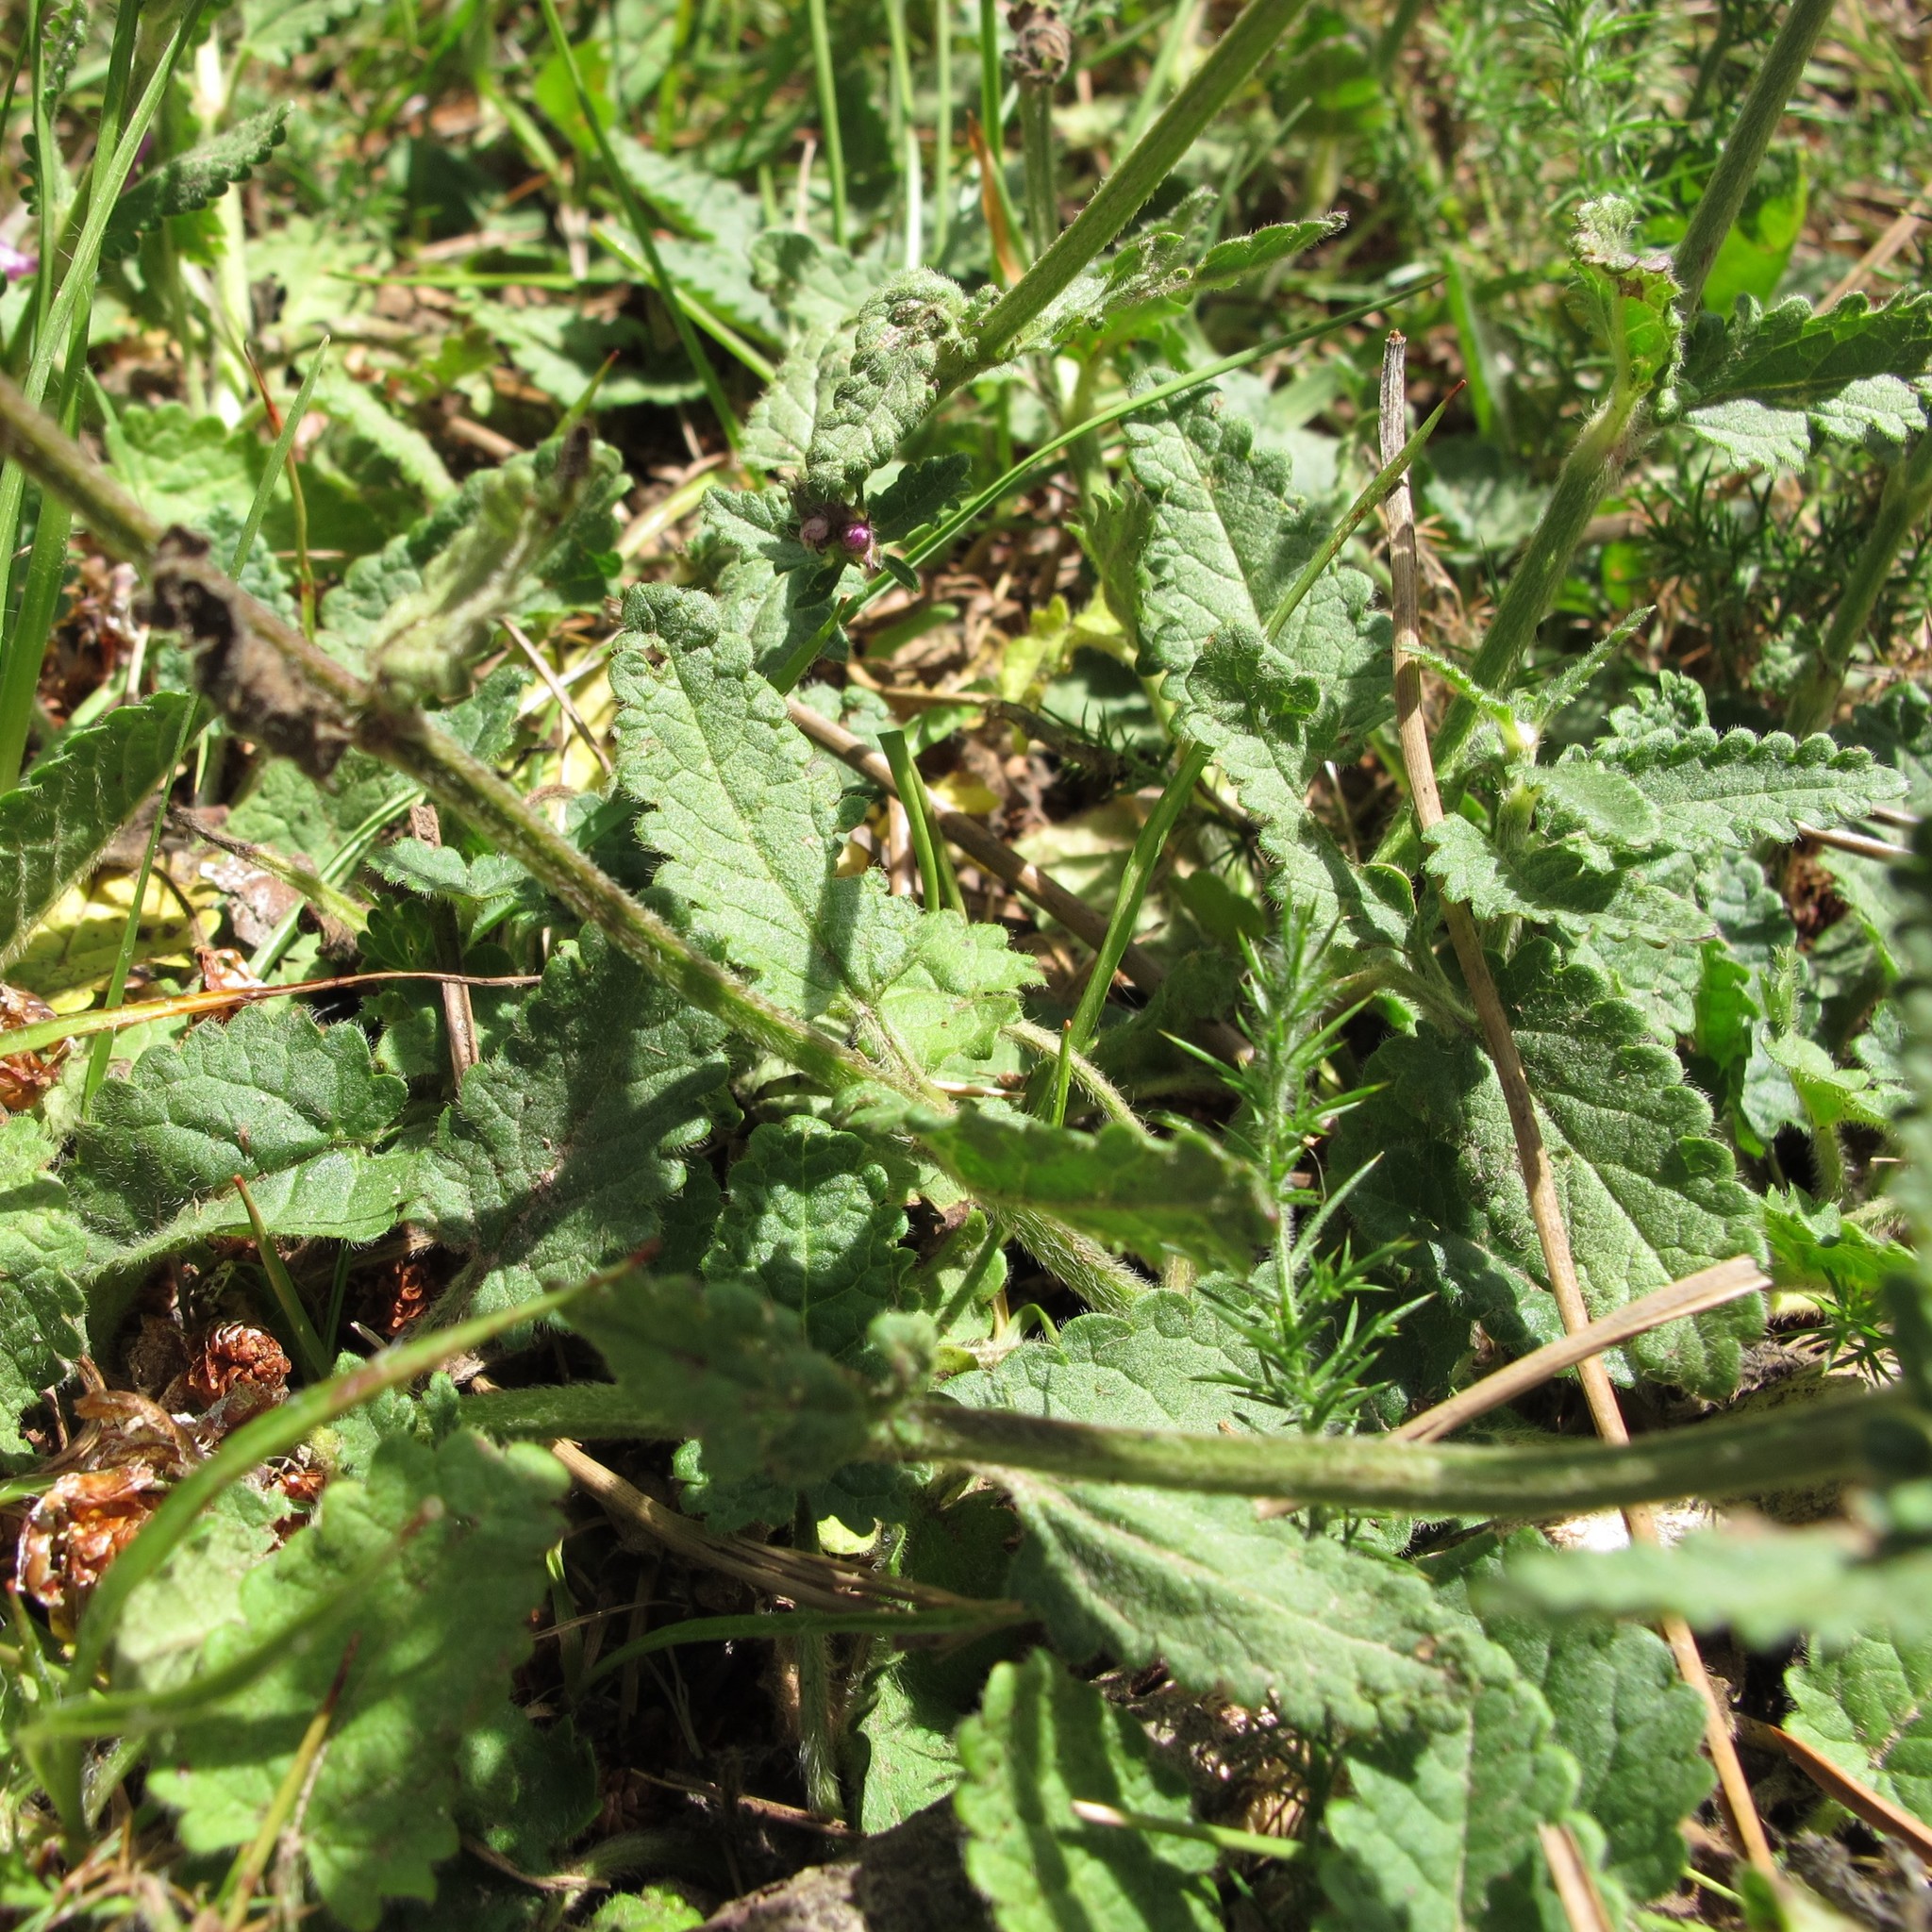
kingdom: Plantae
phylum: Tracheophyta
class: Magnoliopsida
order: Lamiales
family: Lamiaceae
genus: Betonica
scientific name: Betonica officinalis
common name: Bishop's-wort
